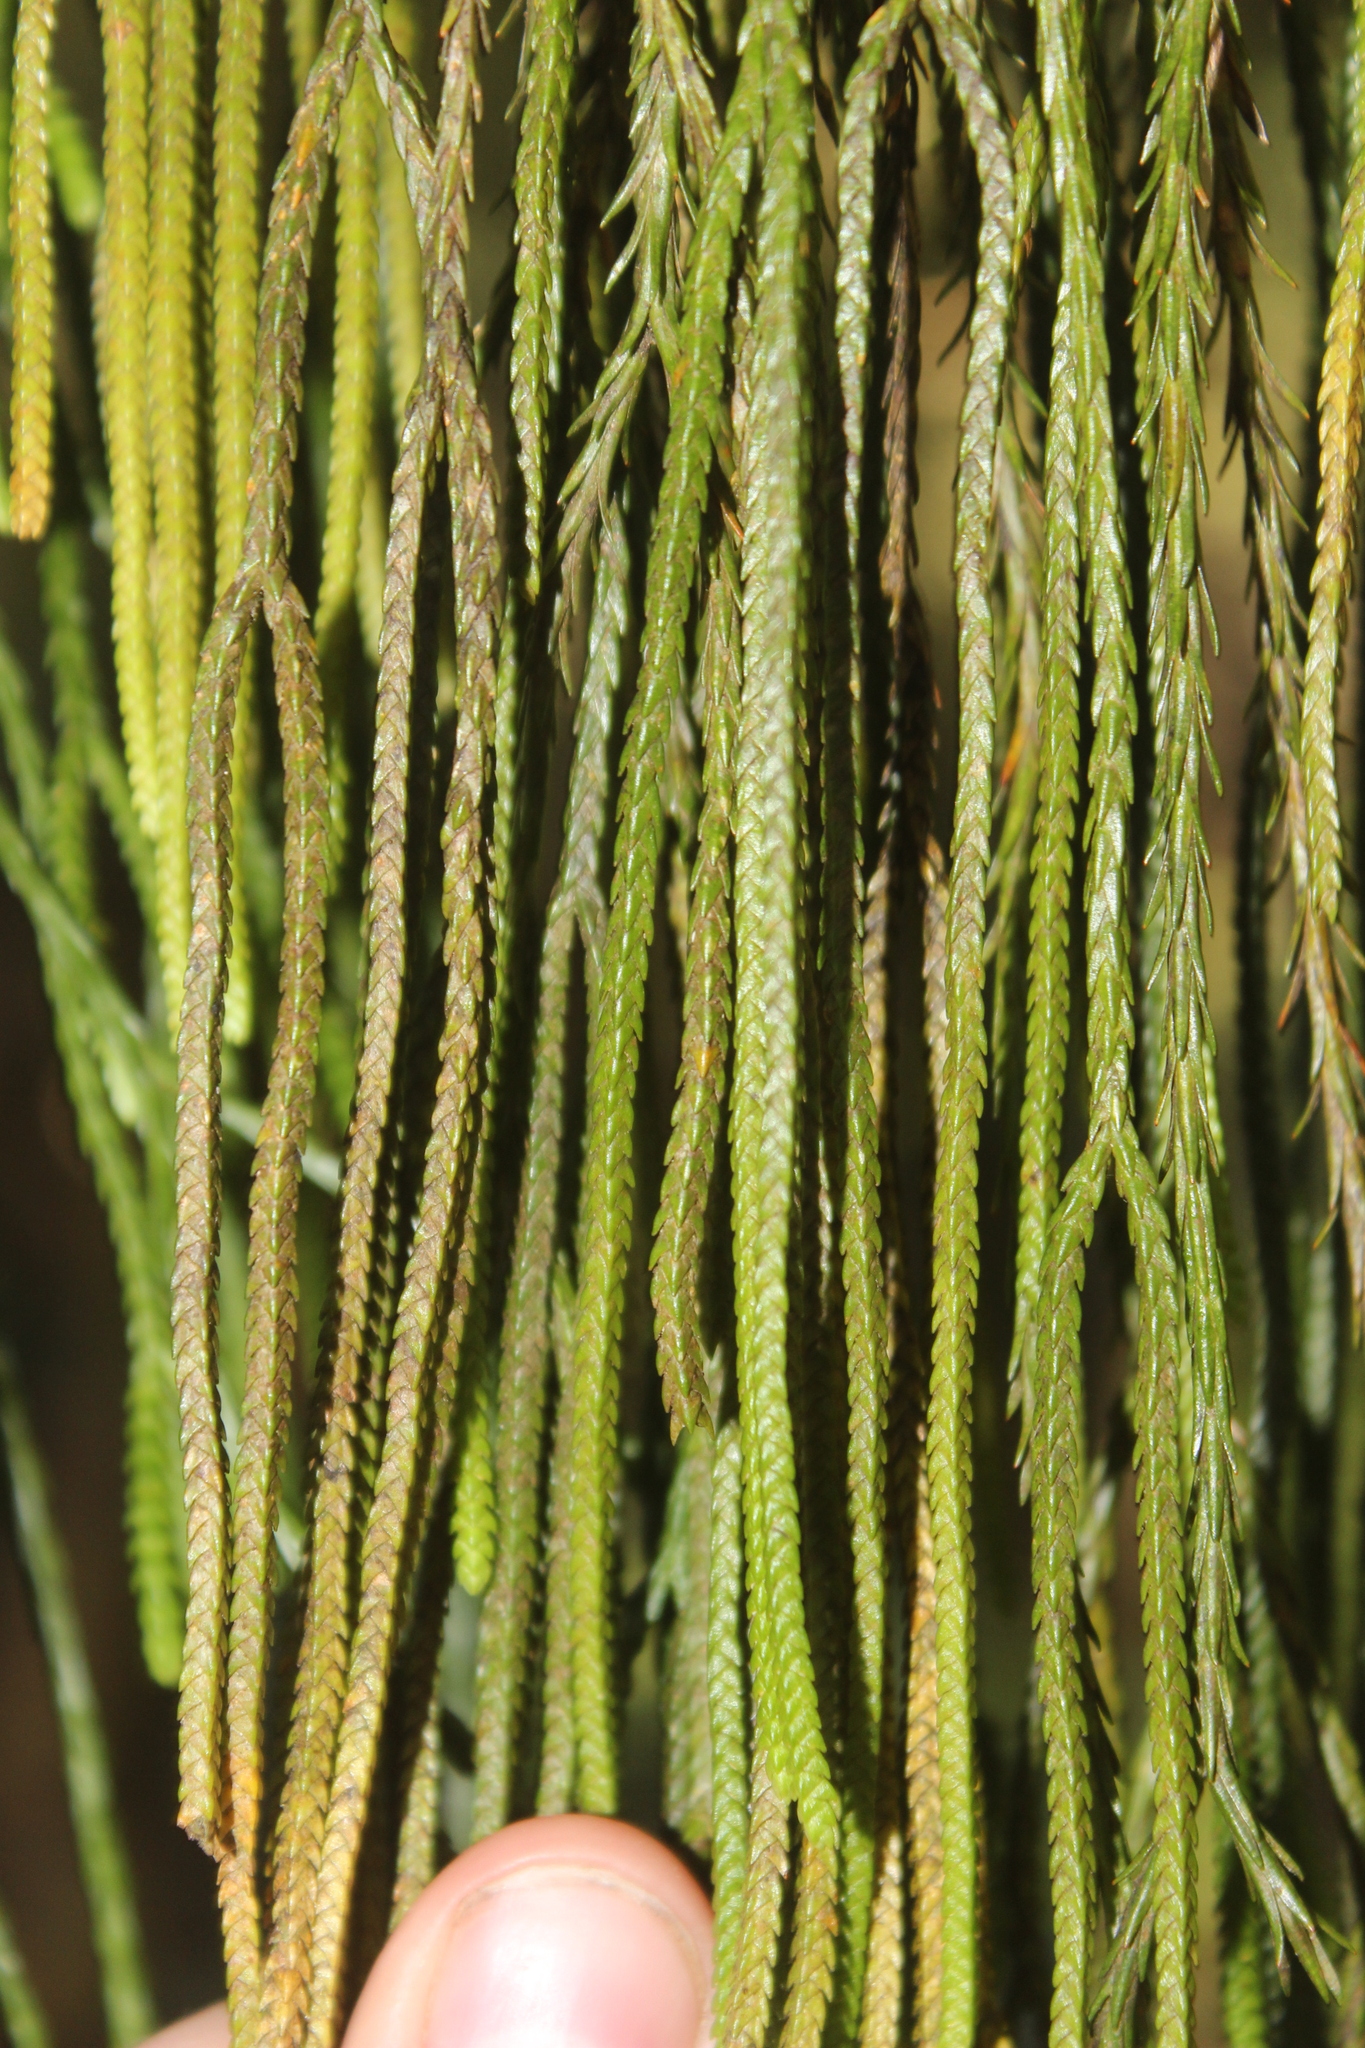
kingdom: Plantae
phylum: Tracheophyta
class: Lycopodiopsida
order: Lycopodiales
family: Lycopodiaceae
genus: Phlegmariurus
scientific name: Phlegmariurus billardierei
